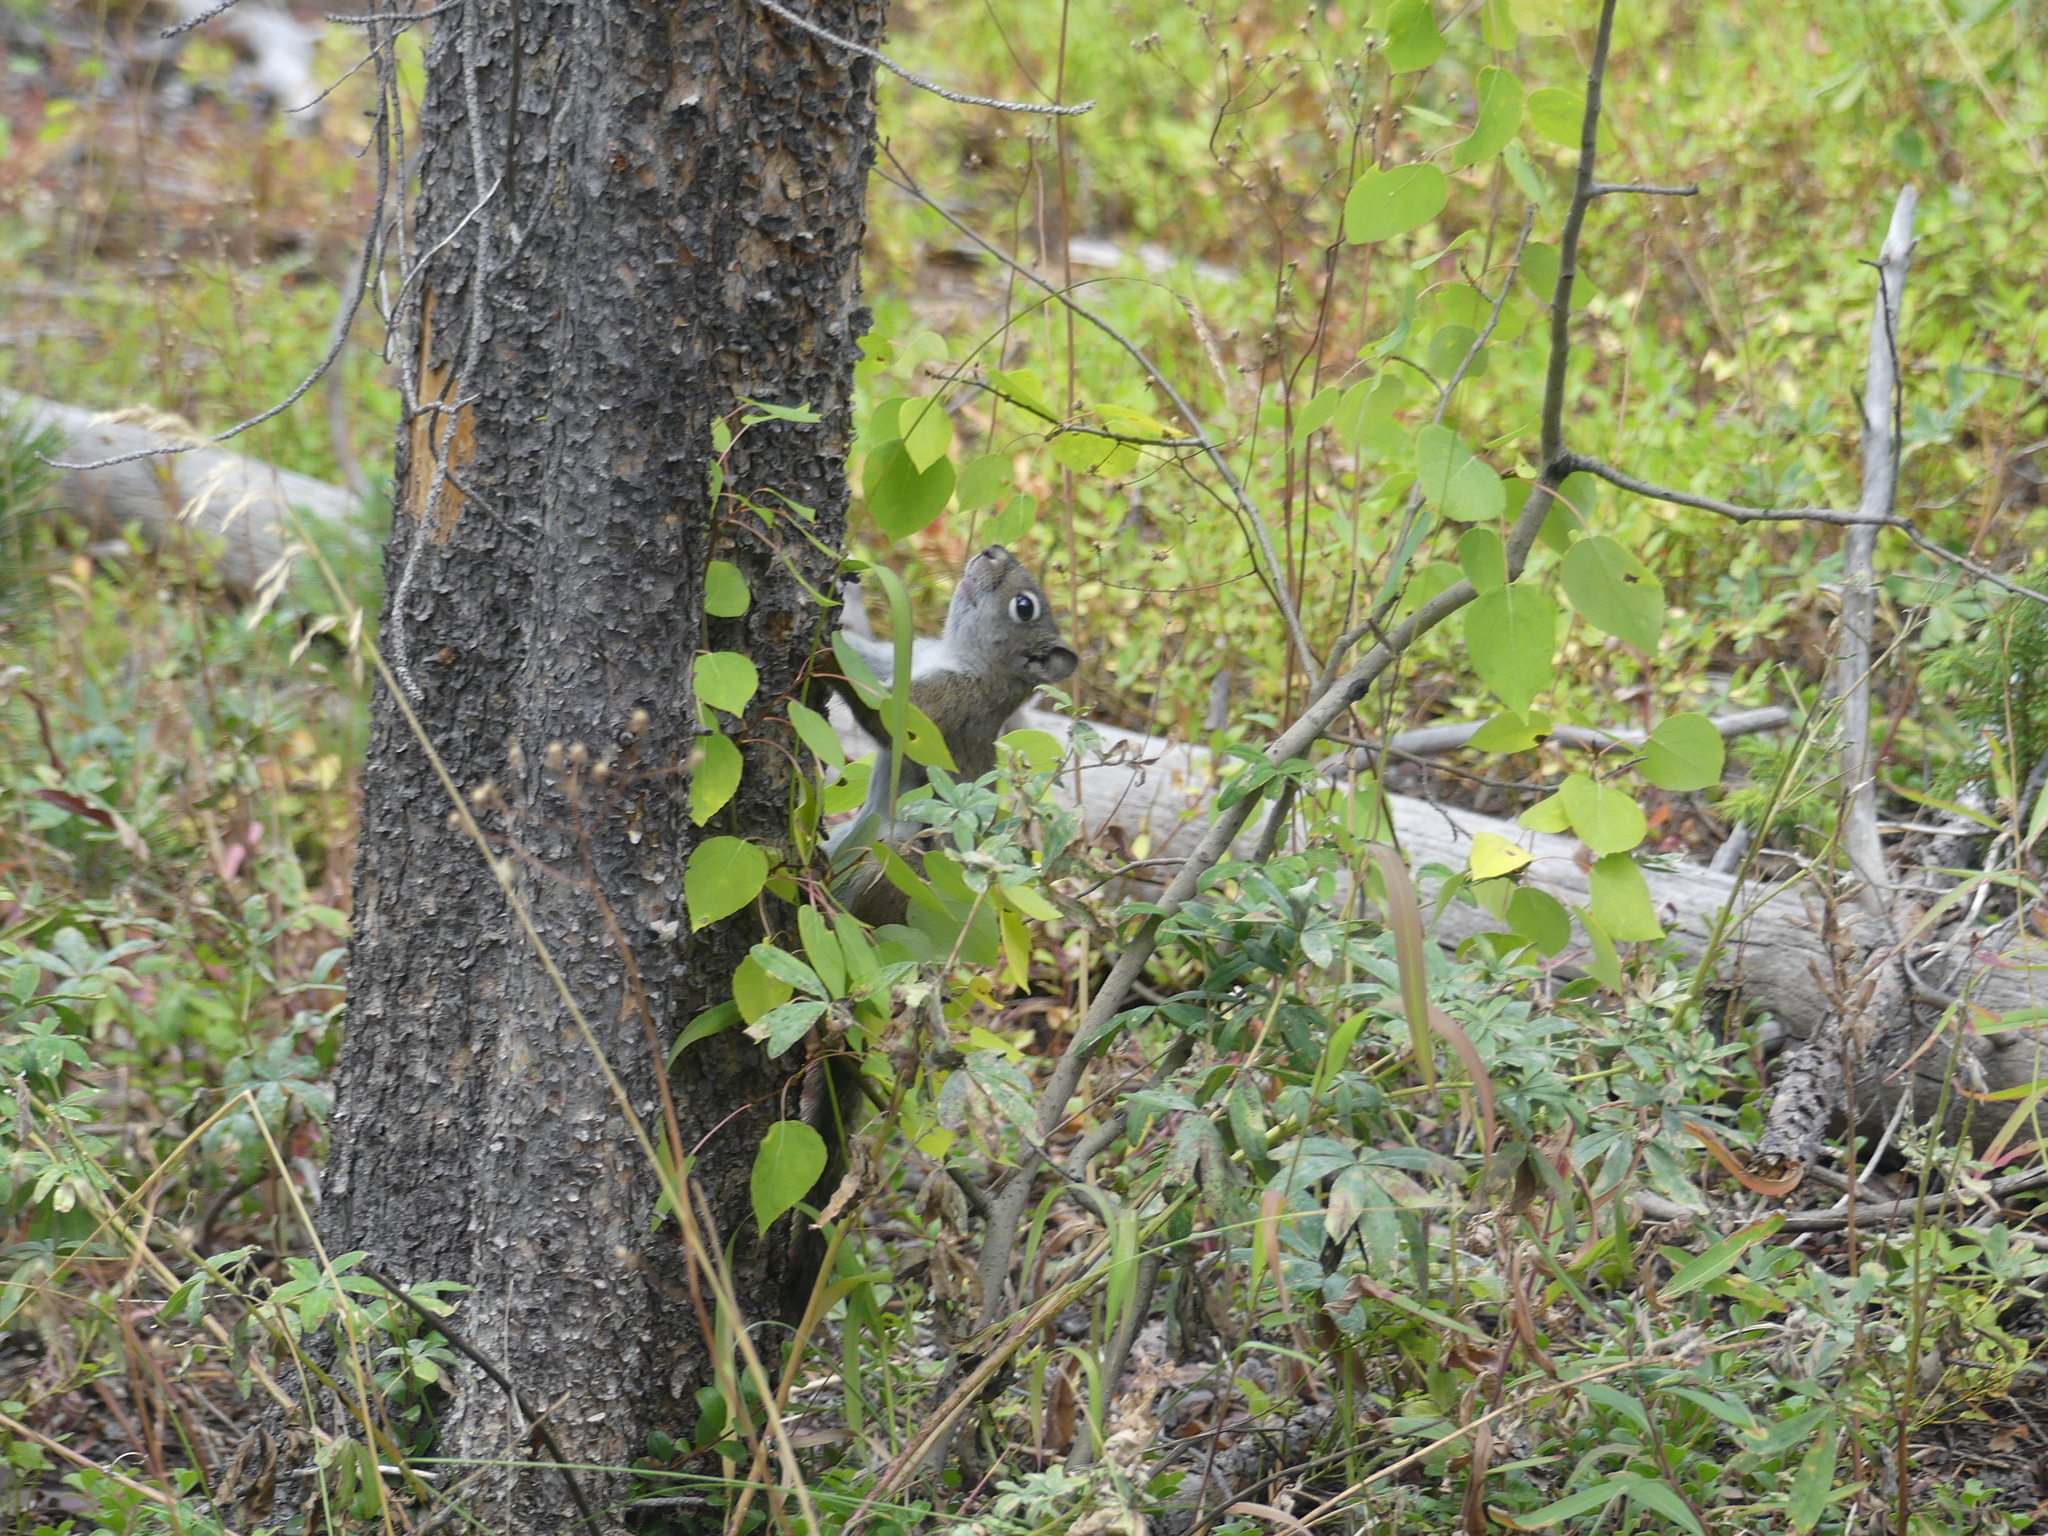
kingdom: Animalia
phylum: Chordata
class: Mammalia
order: Rodentia
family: Sciuridae
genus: Tamiasciurus
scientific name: Tamiasciurus hudsonicus
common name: Red squirrel
